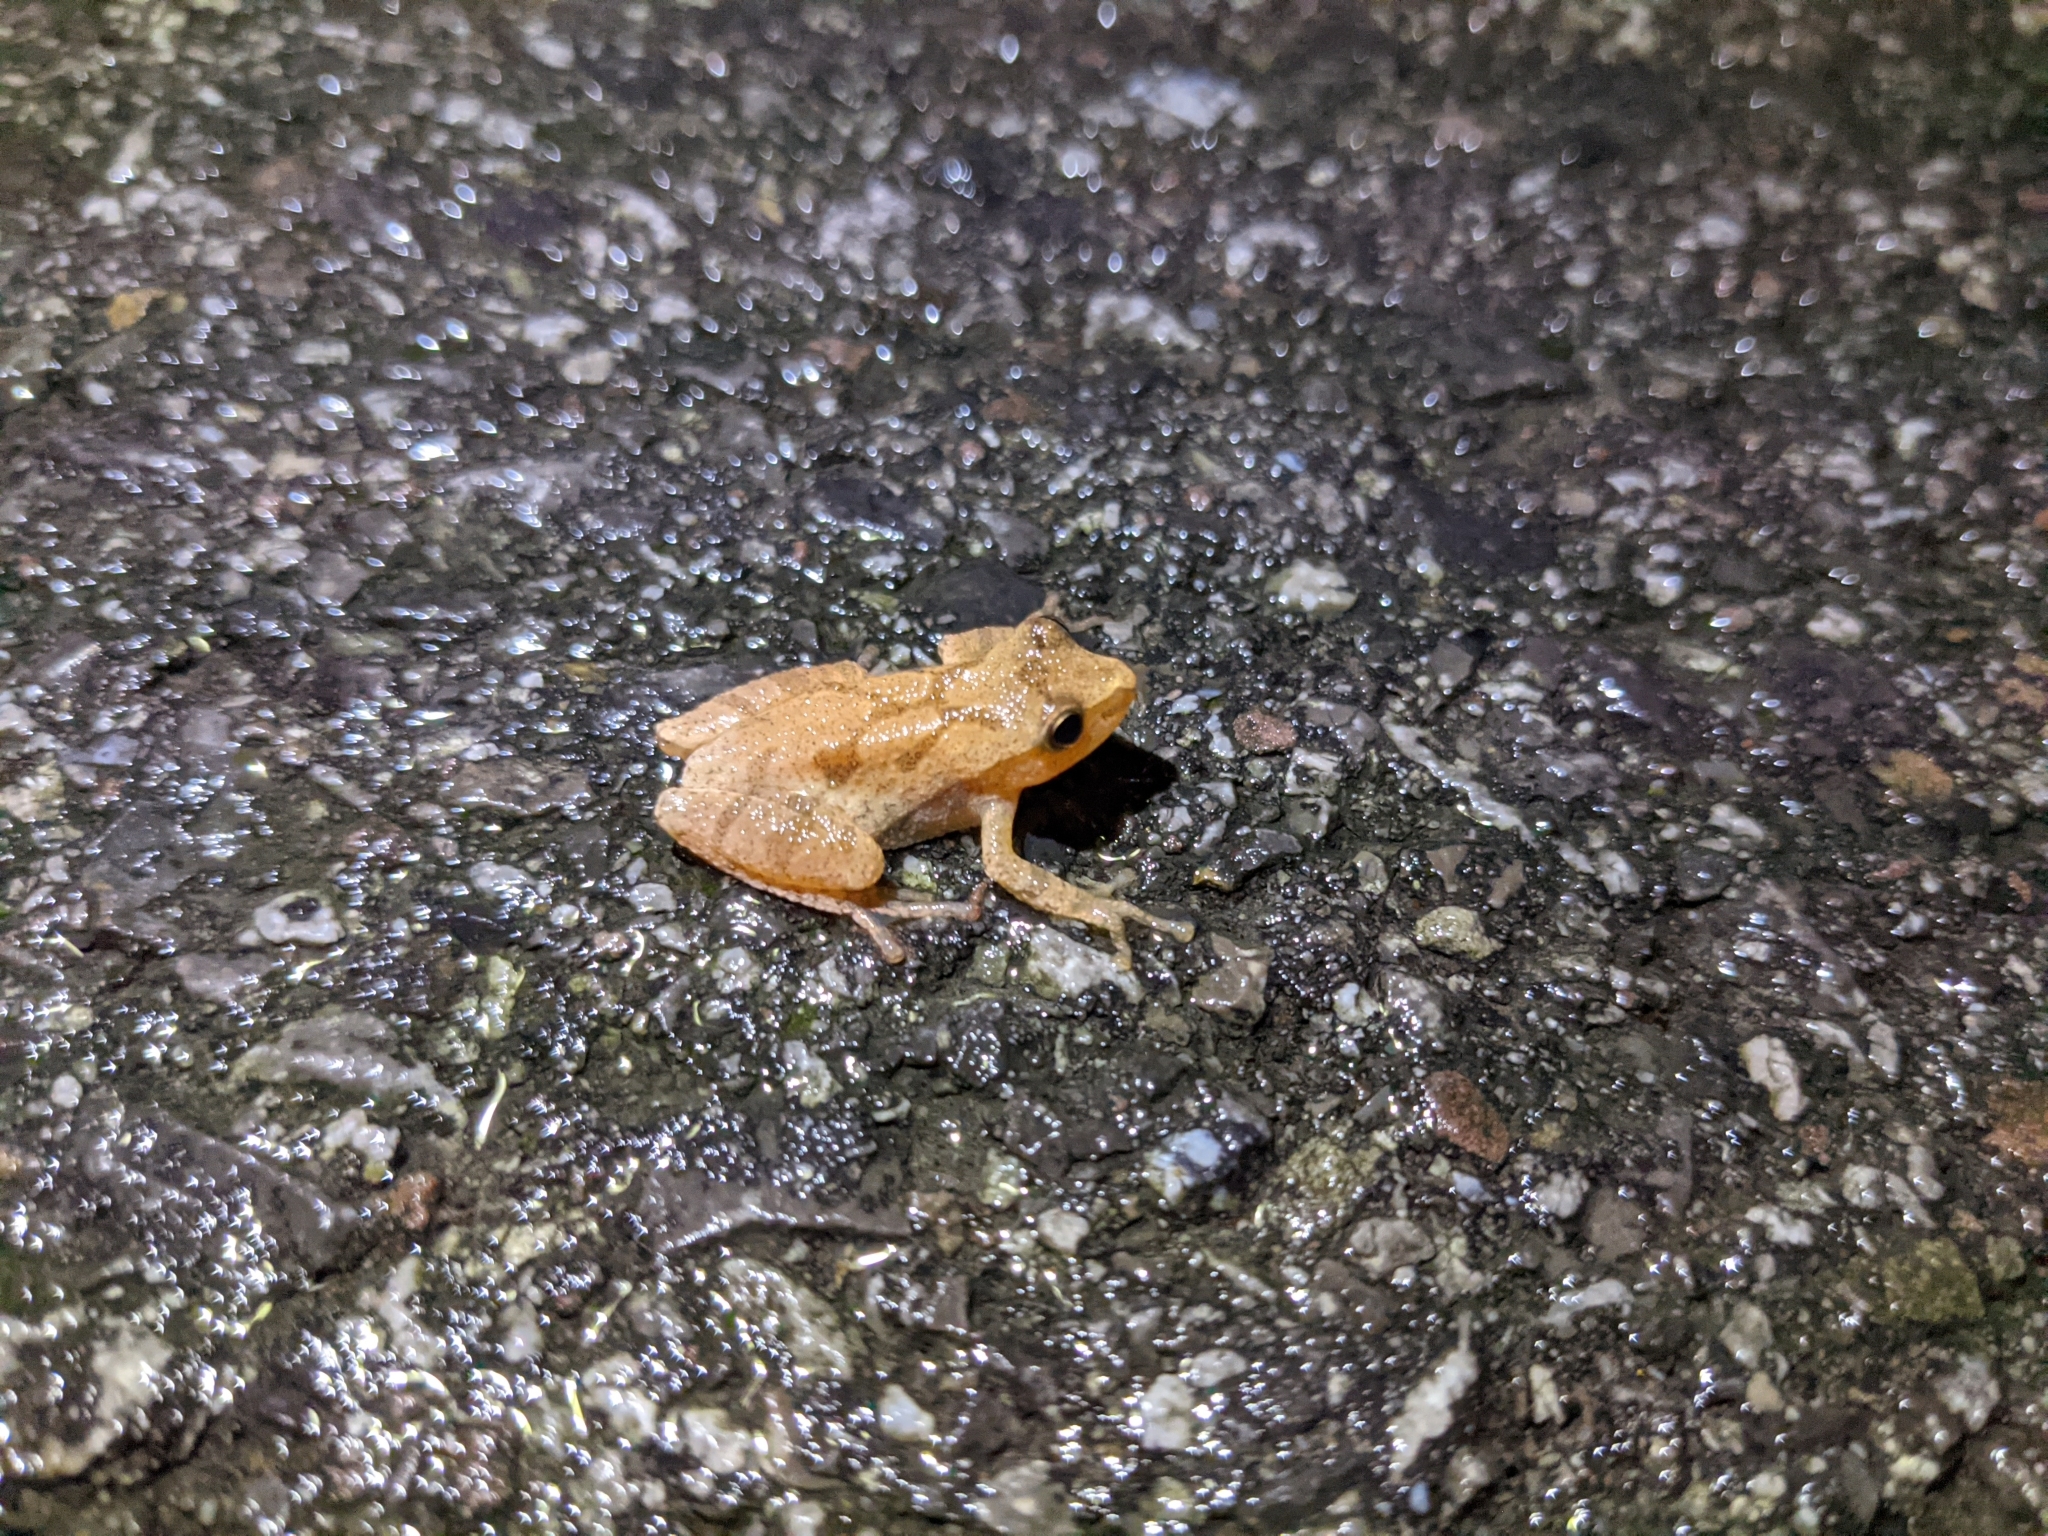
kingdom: Animalia
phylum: Chordata
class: Amphibia
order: Anura
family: Hylidae
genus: Pseudacris
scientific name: Pseudacris crucifer
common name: Spring peeper
